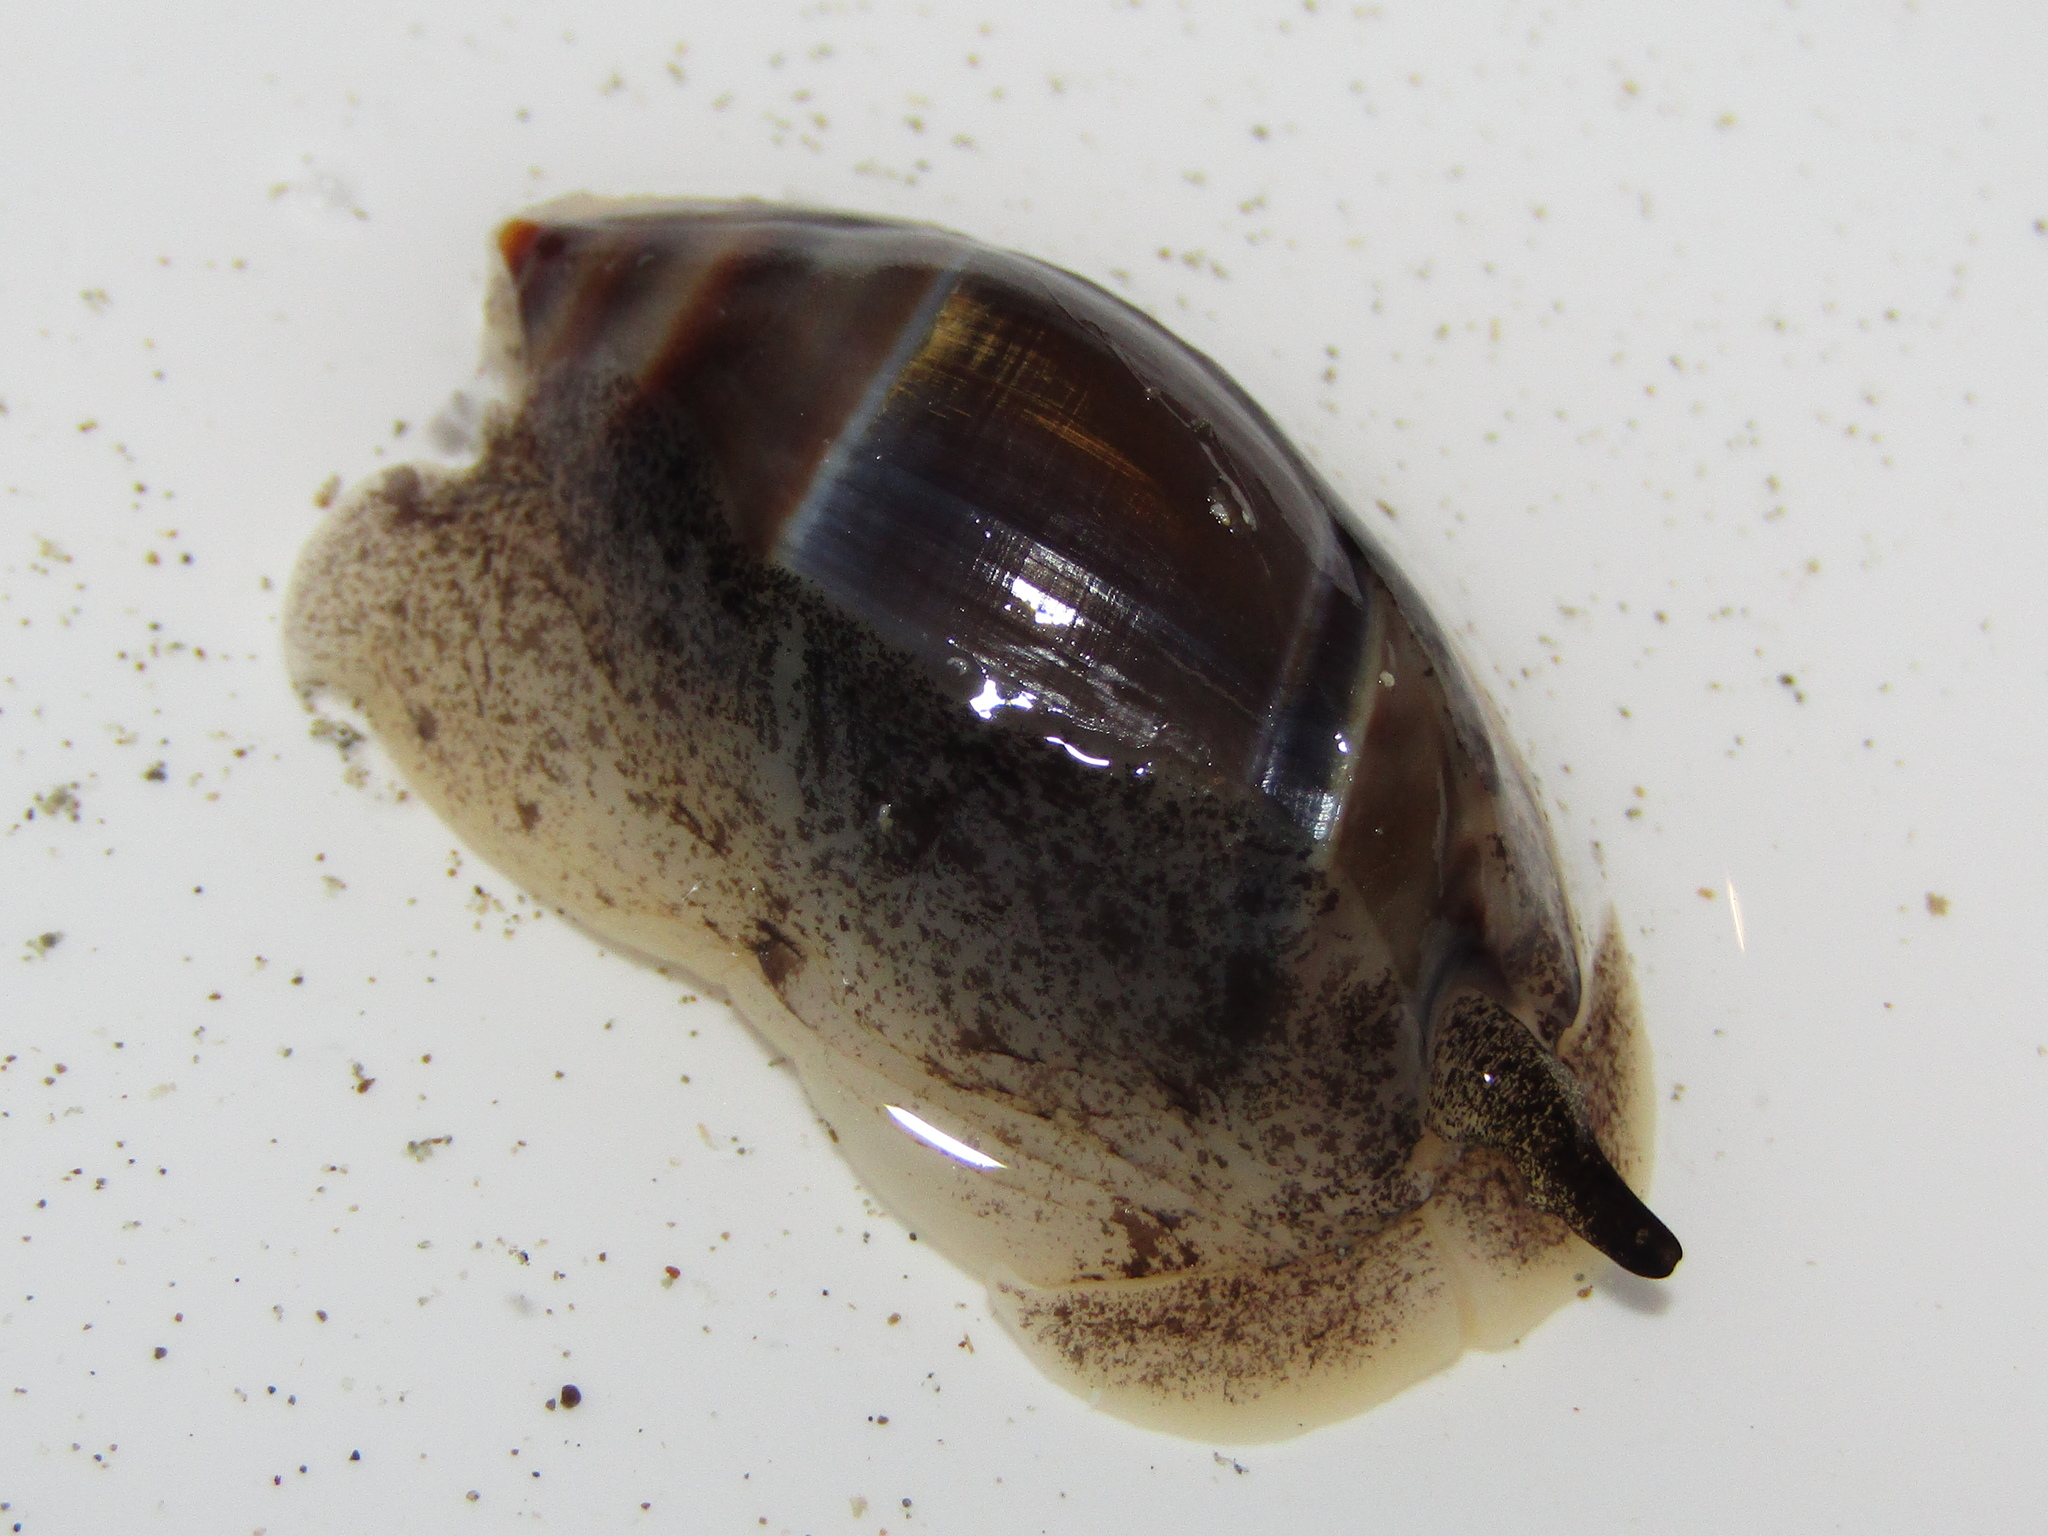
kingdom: Animalia
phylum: Mollusca
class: Gastropoda
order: Neogastropoda
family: Ancillariidae
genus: Amalda
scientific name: Amalda australis
